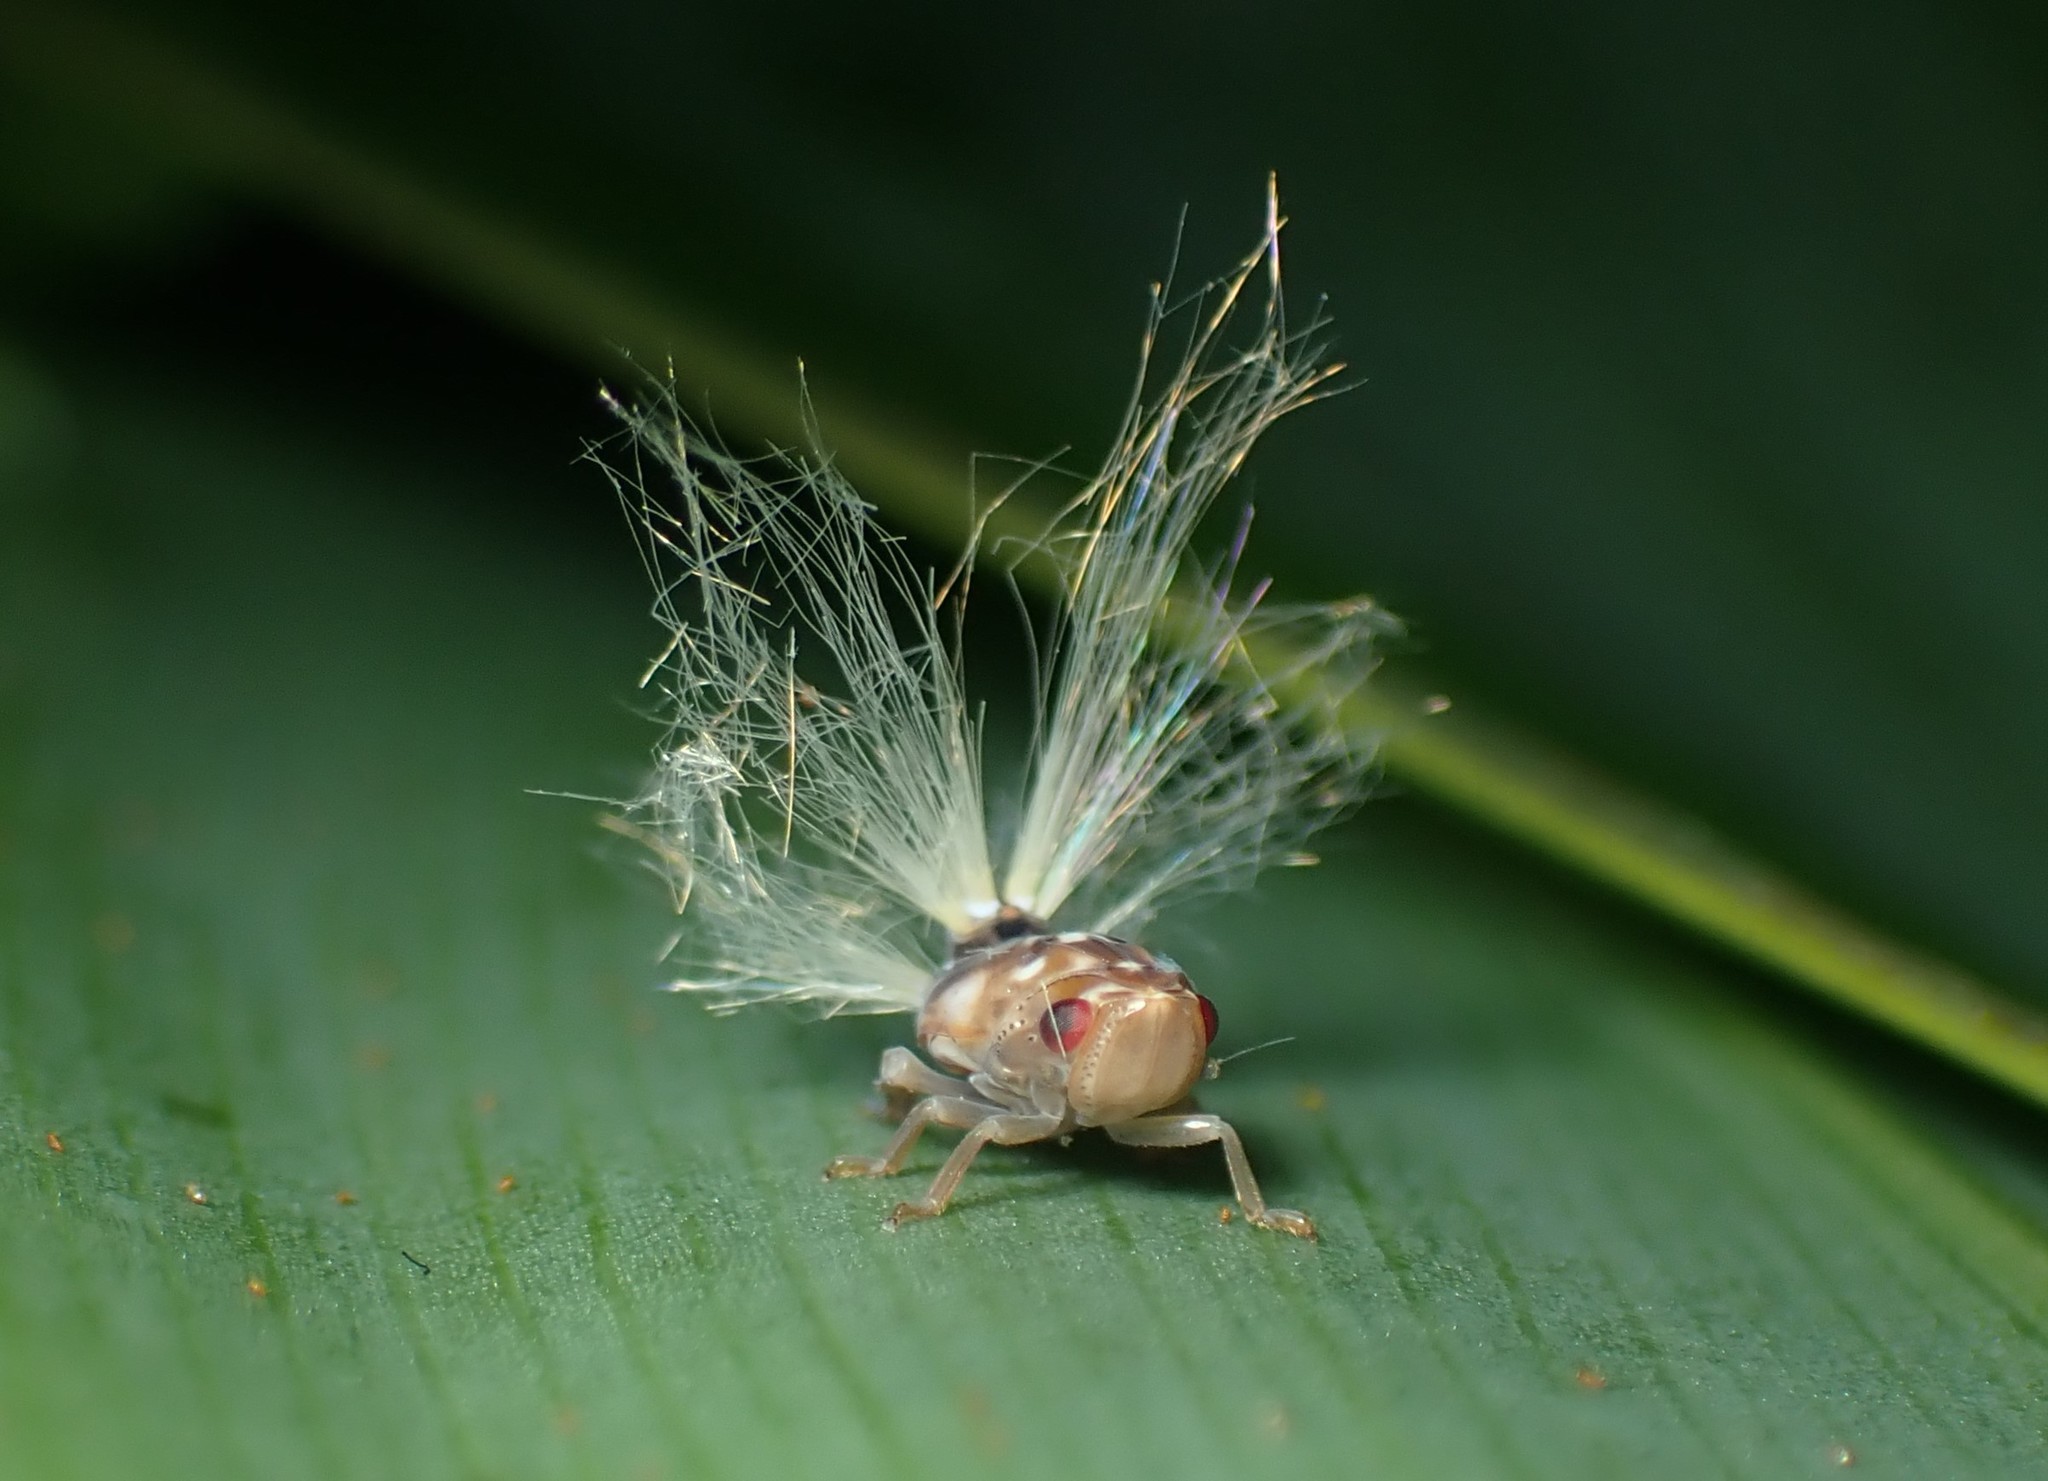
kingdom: Animalia
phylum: Arthropoda
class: Insecta
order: Hemiptera
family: Ricaniidae
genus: Scolypopa
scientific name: Scolypopa australis
